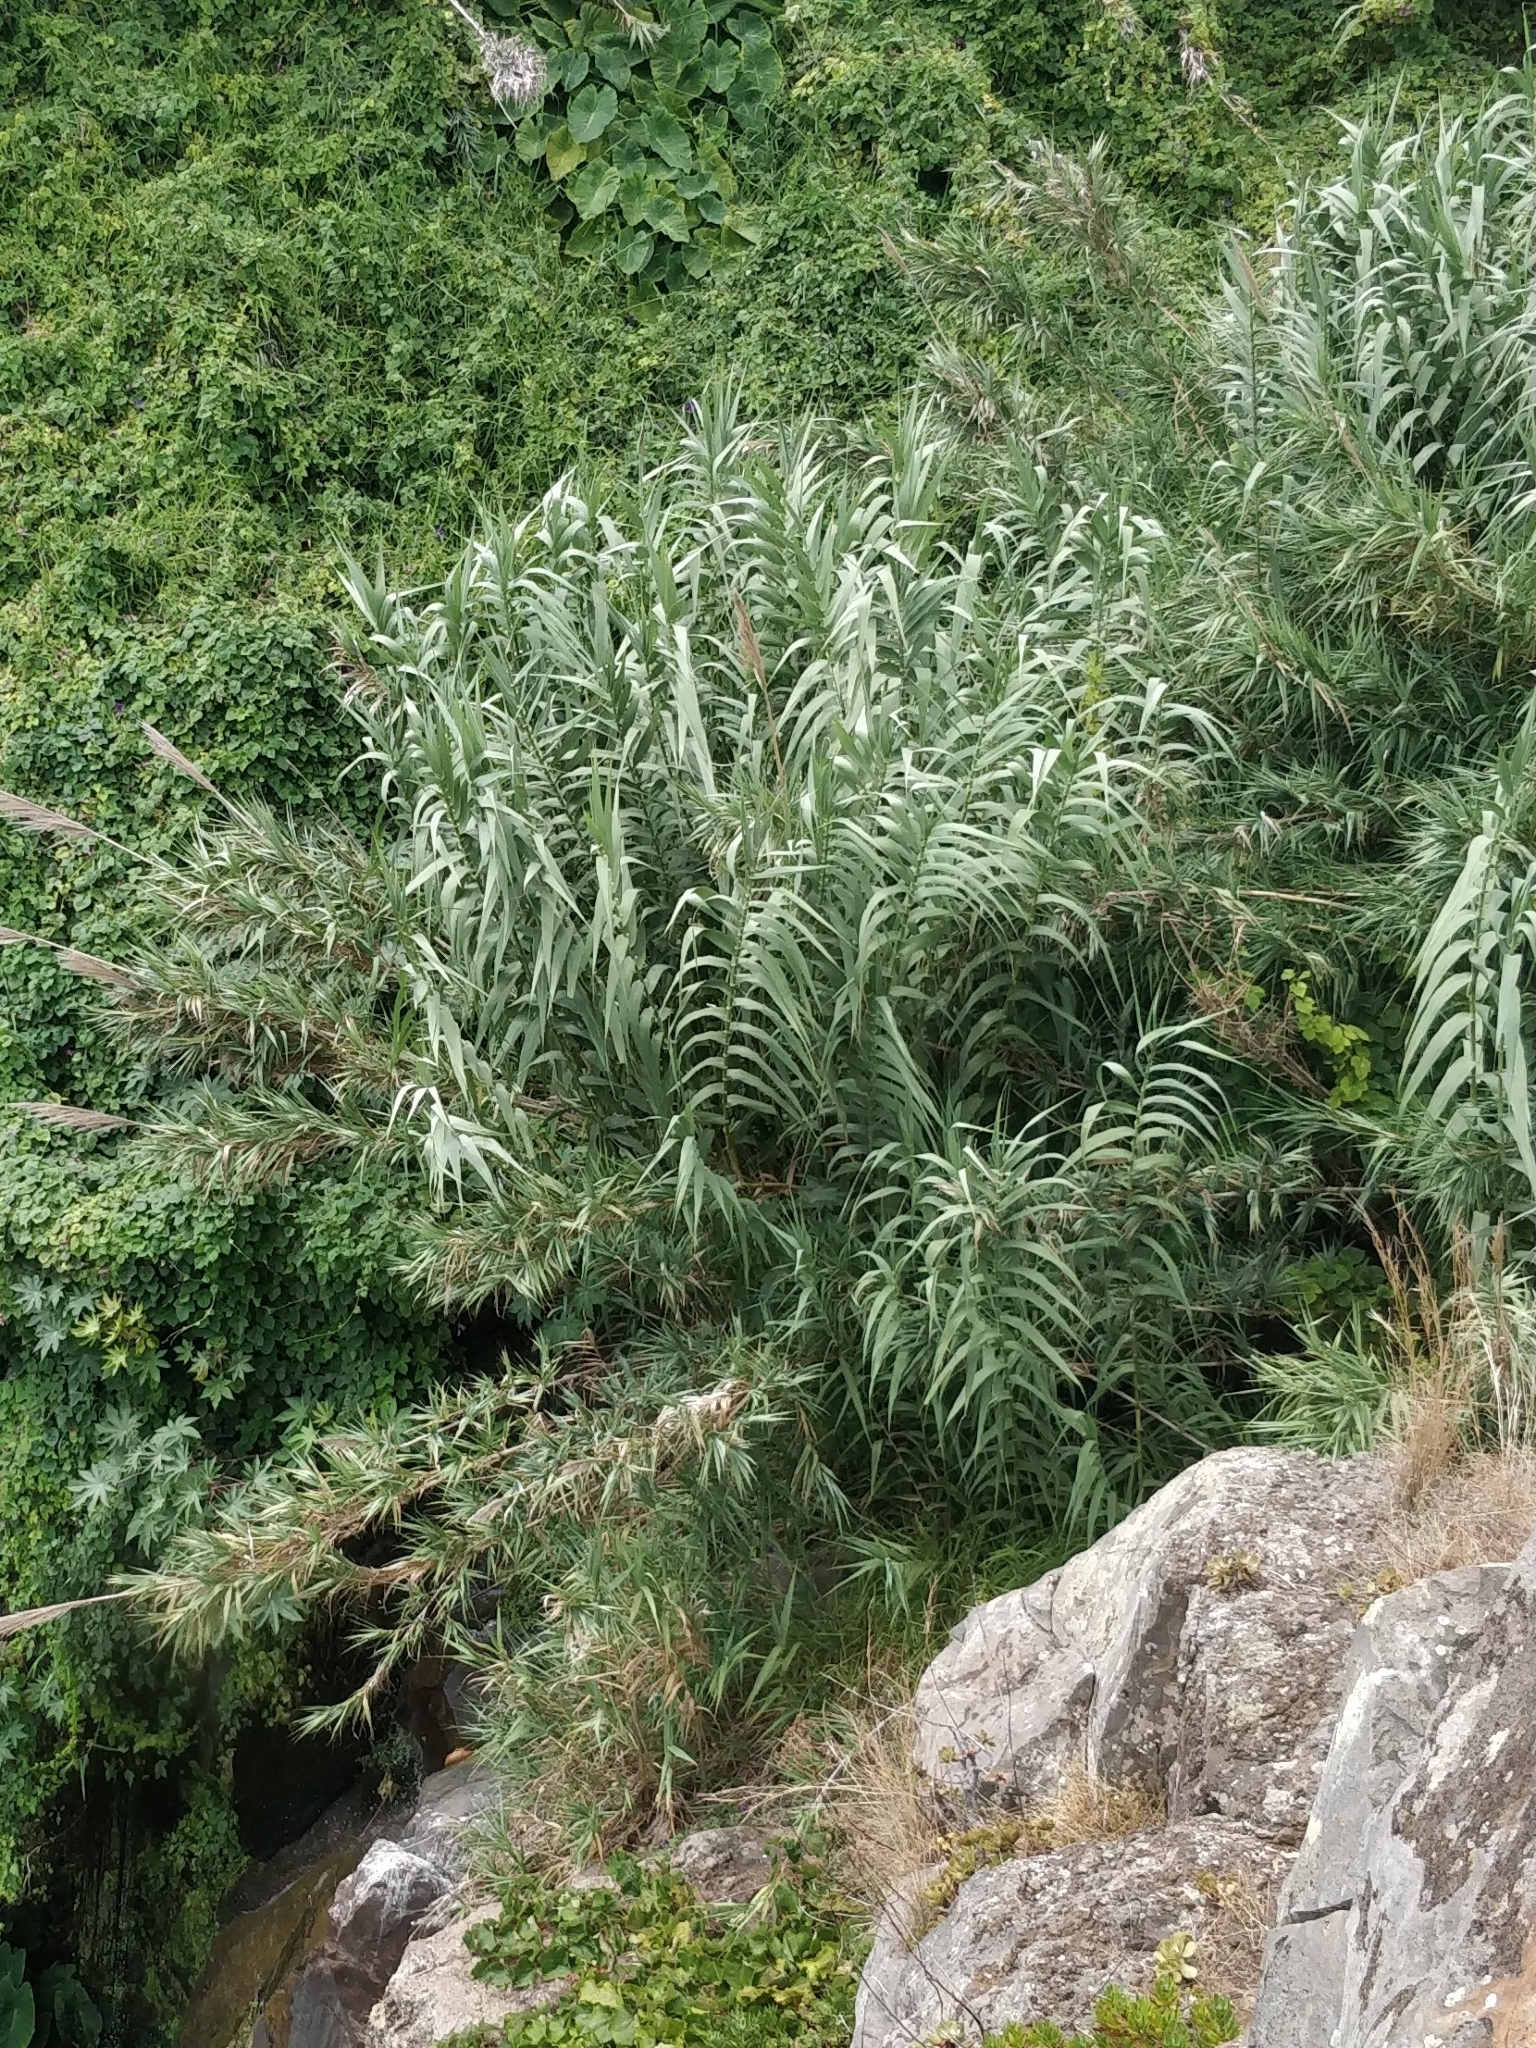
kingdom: Plantae
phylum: Tracheophyta
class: Liliopsida
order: Poales
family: Poaceae
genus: Arundo
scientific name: Arundo donax
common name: Giant reed
